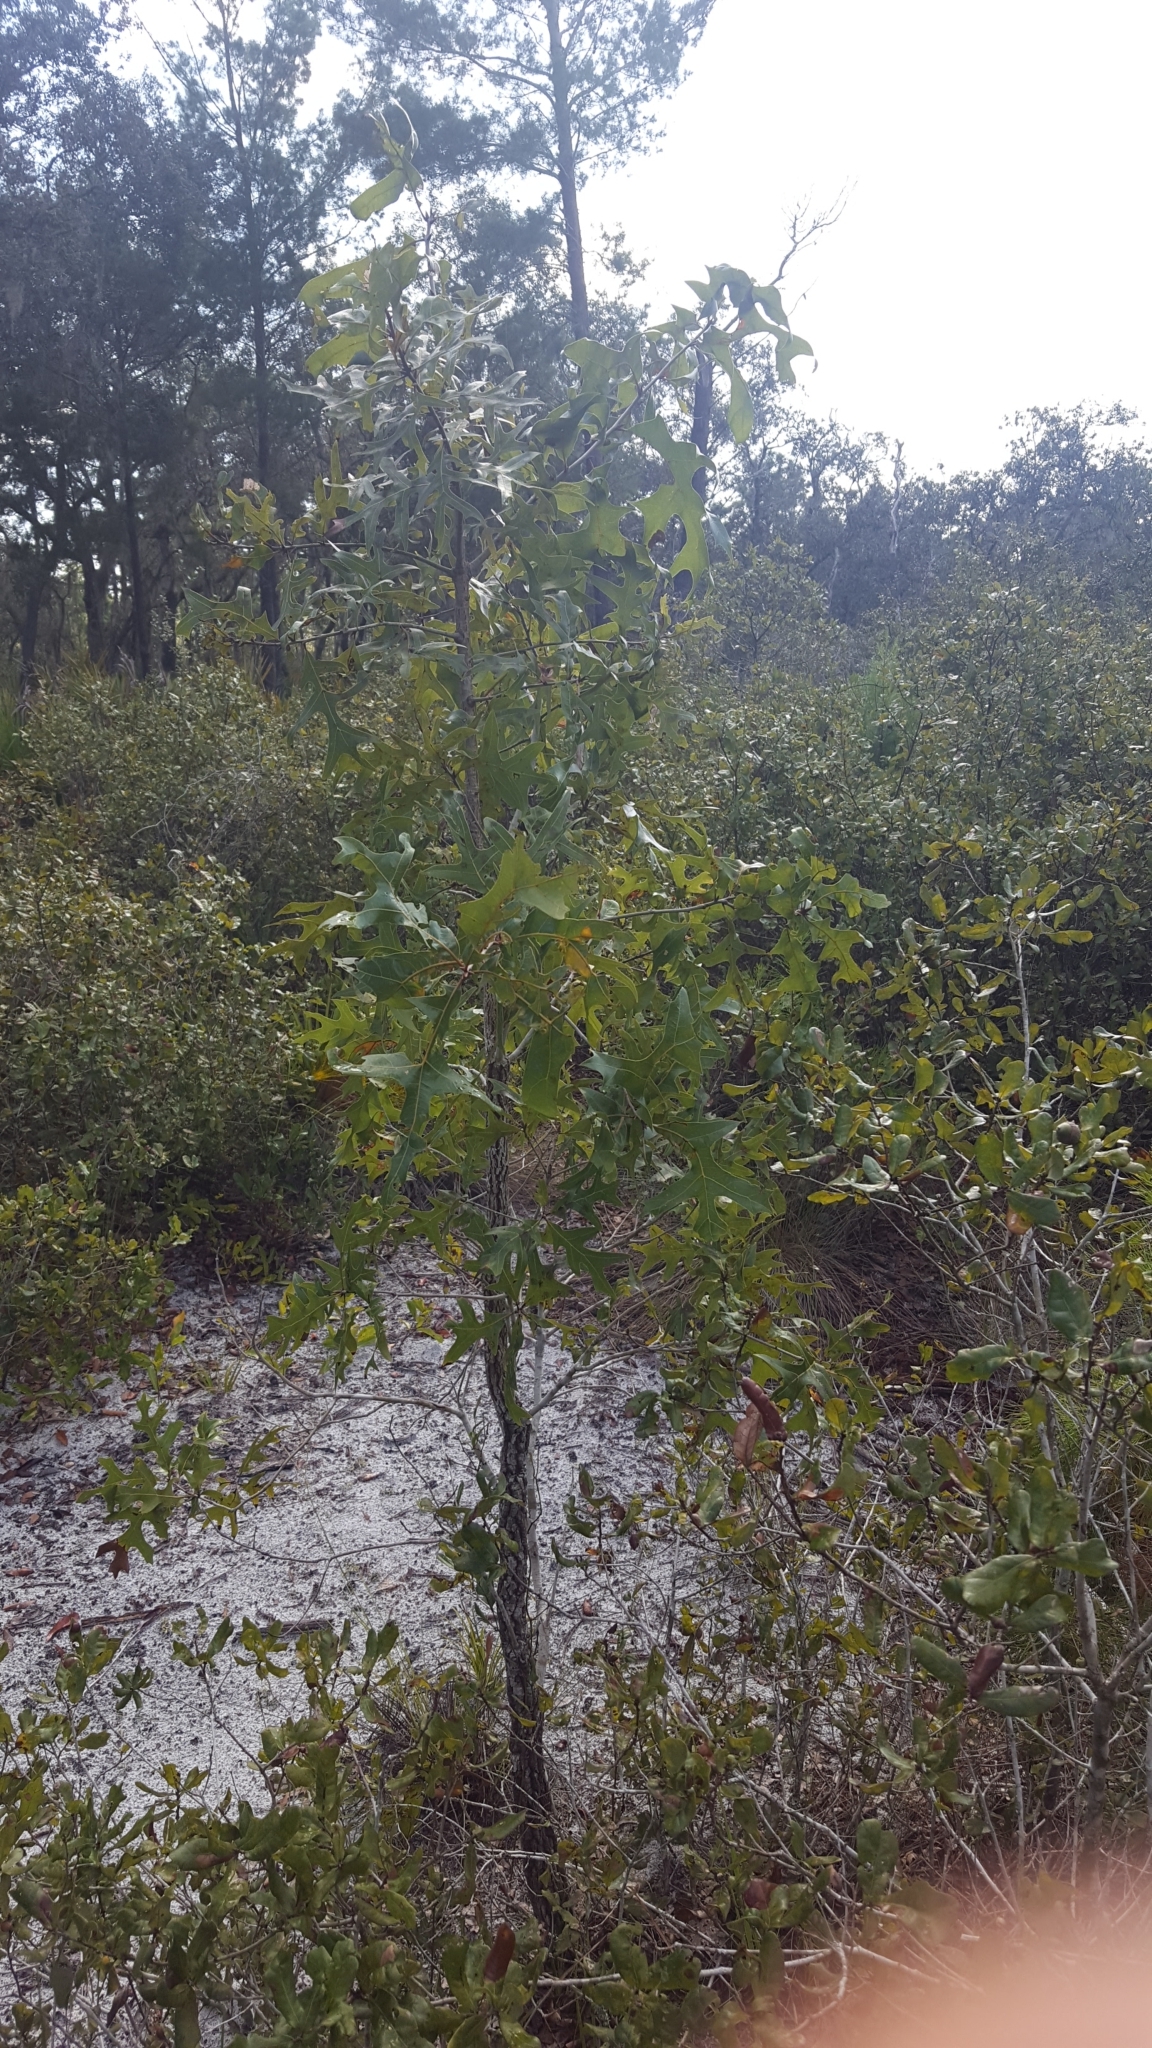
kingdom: Plantae
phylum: Tracheophyta
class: Magnoliopsida
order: Fagales
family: Fagaceae
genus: Quercus
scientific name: Quercus laevis
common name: Turkey oak
